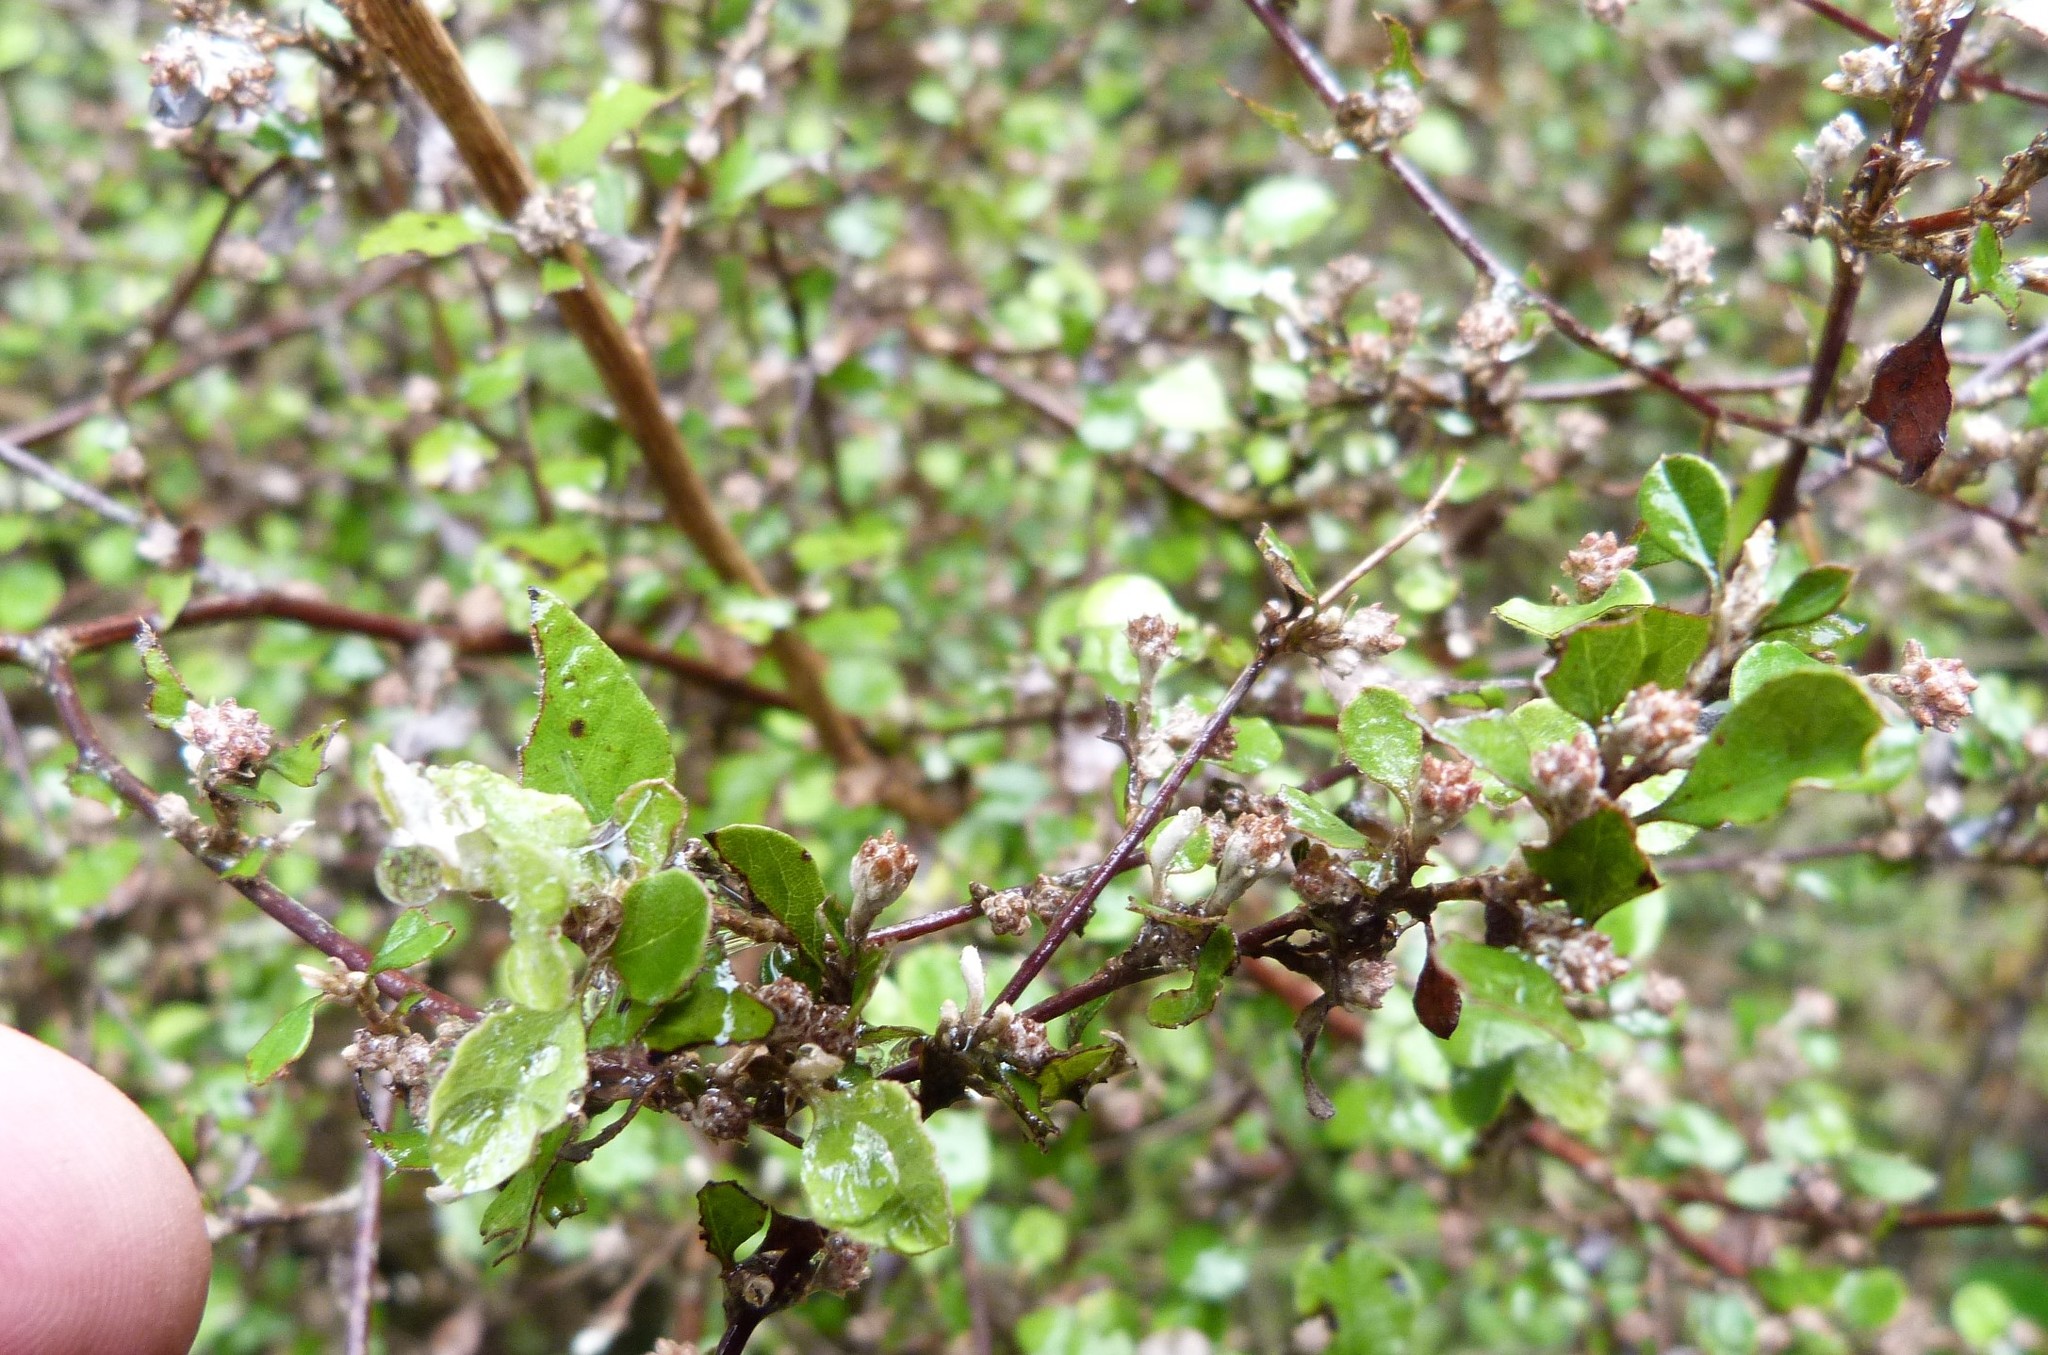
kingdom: Plantae
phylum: Tracheophyta
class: Magnoliopsida
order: Asterales
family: Asteraceae
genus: Ozothamnus
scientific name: Ozothamnus glomeratus
